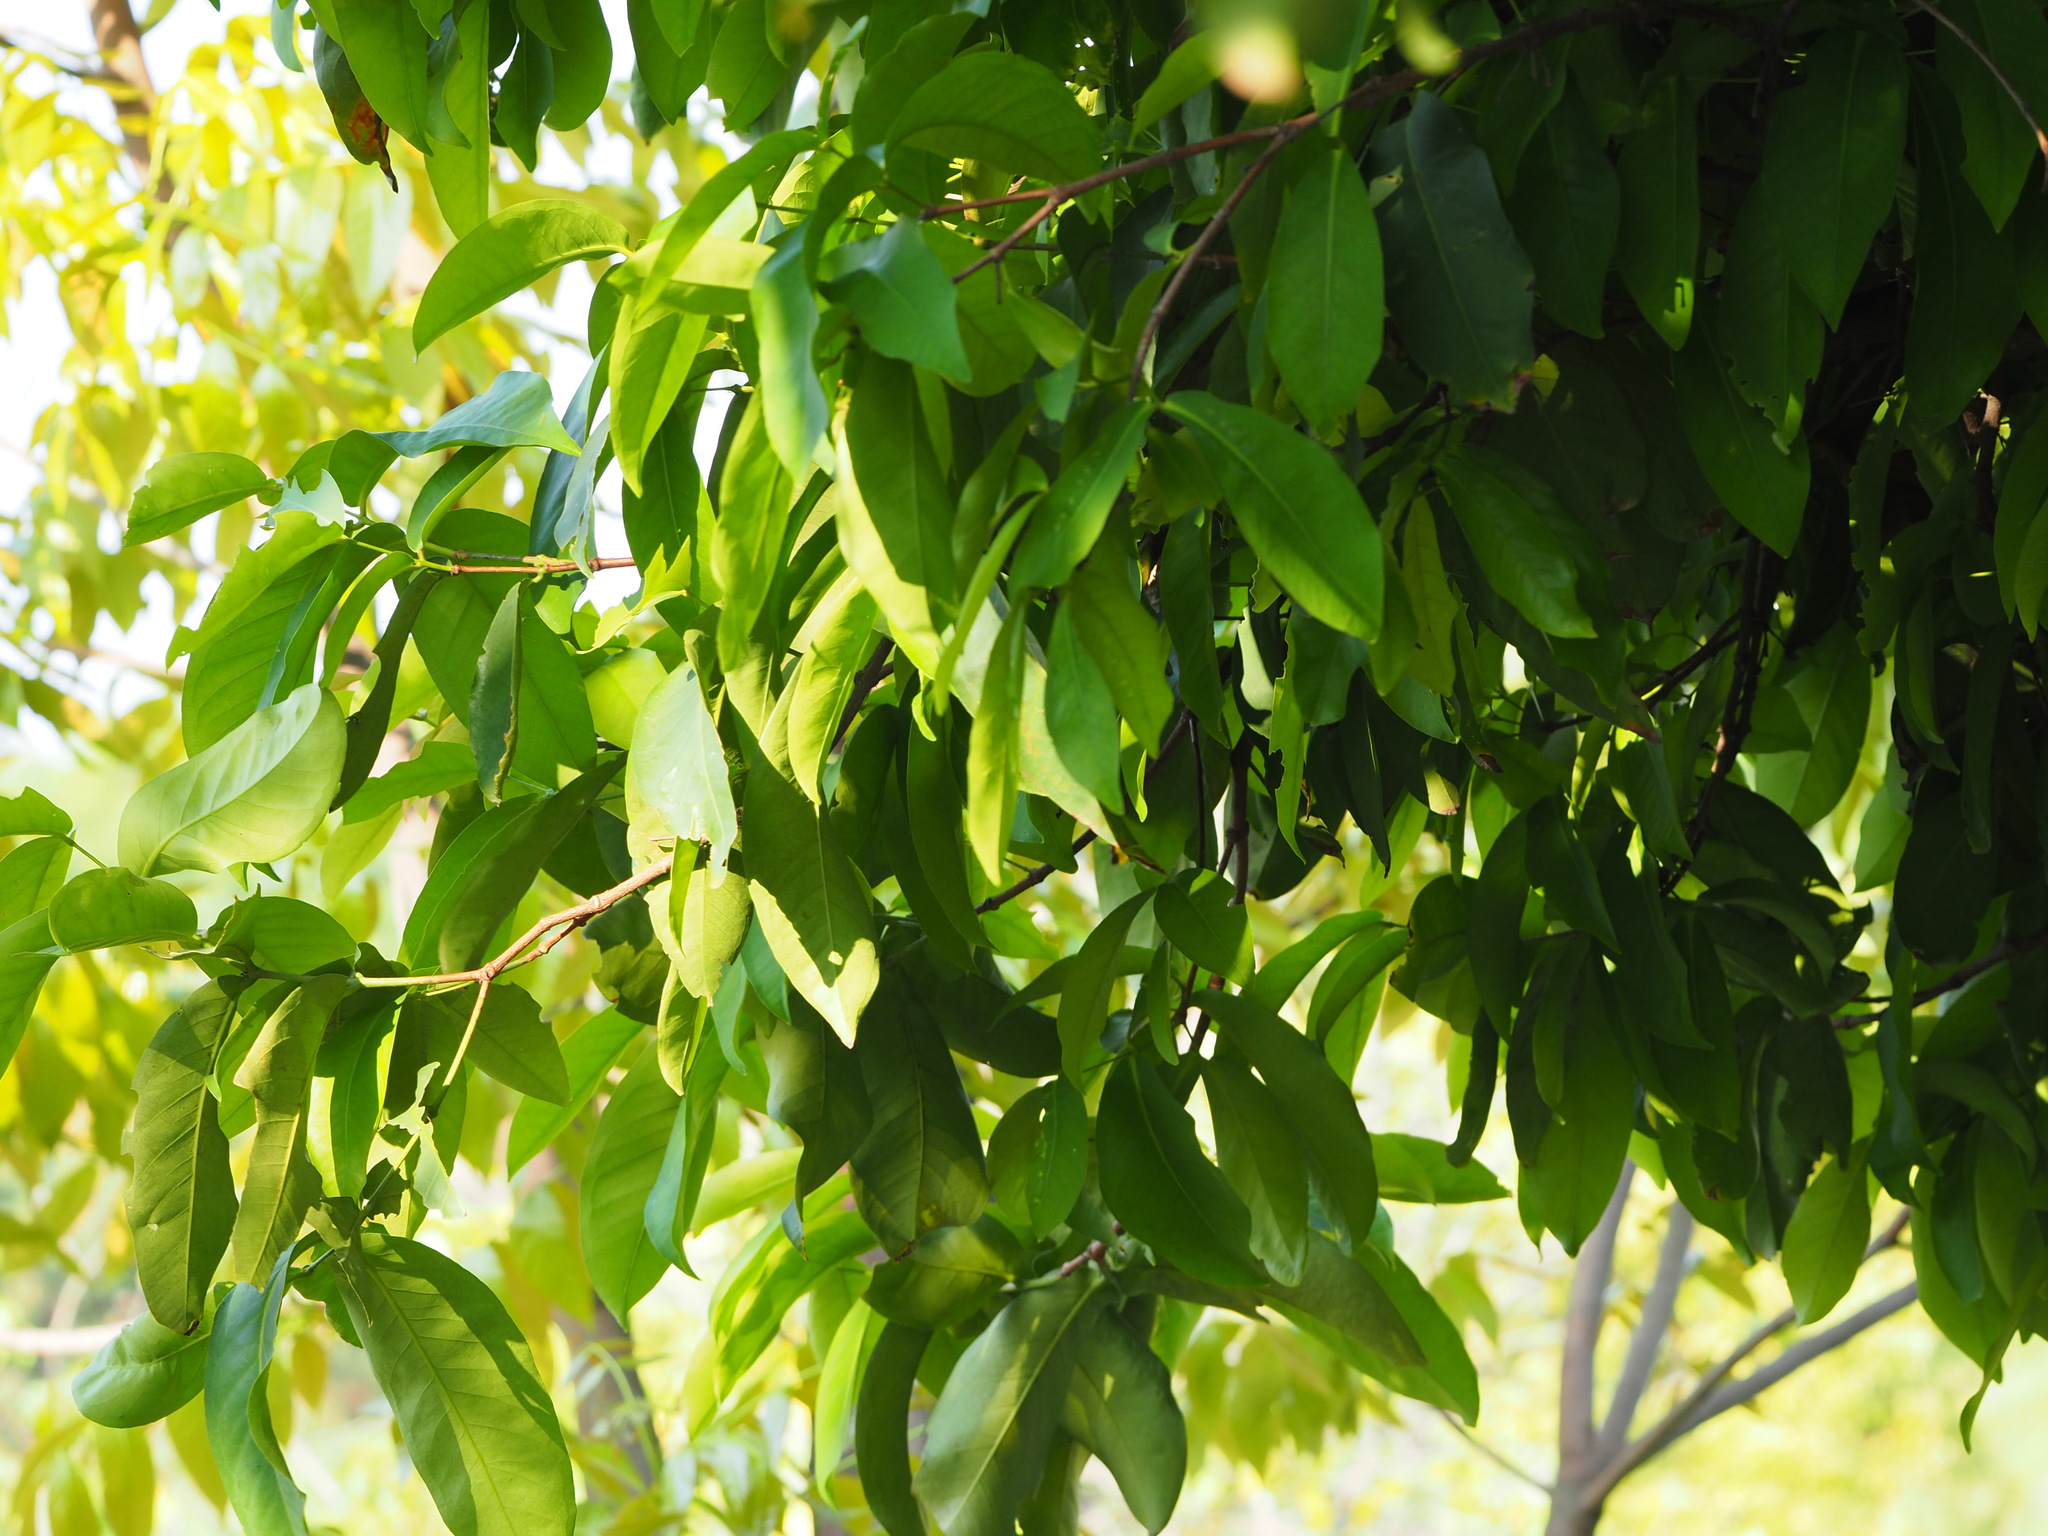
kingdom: Plantae
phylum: Tracheophyta
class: Magnoliopsida
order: Myrtales
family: Myrtaceae
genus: Syzygium
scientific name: Syzygium samarangense
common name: Semarang rose-apple
